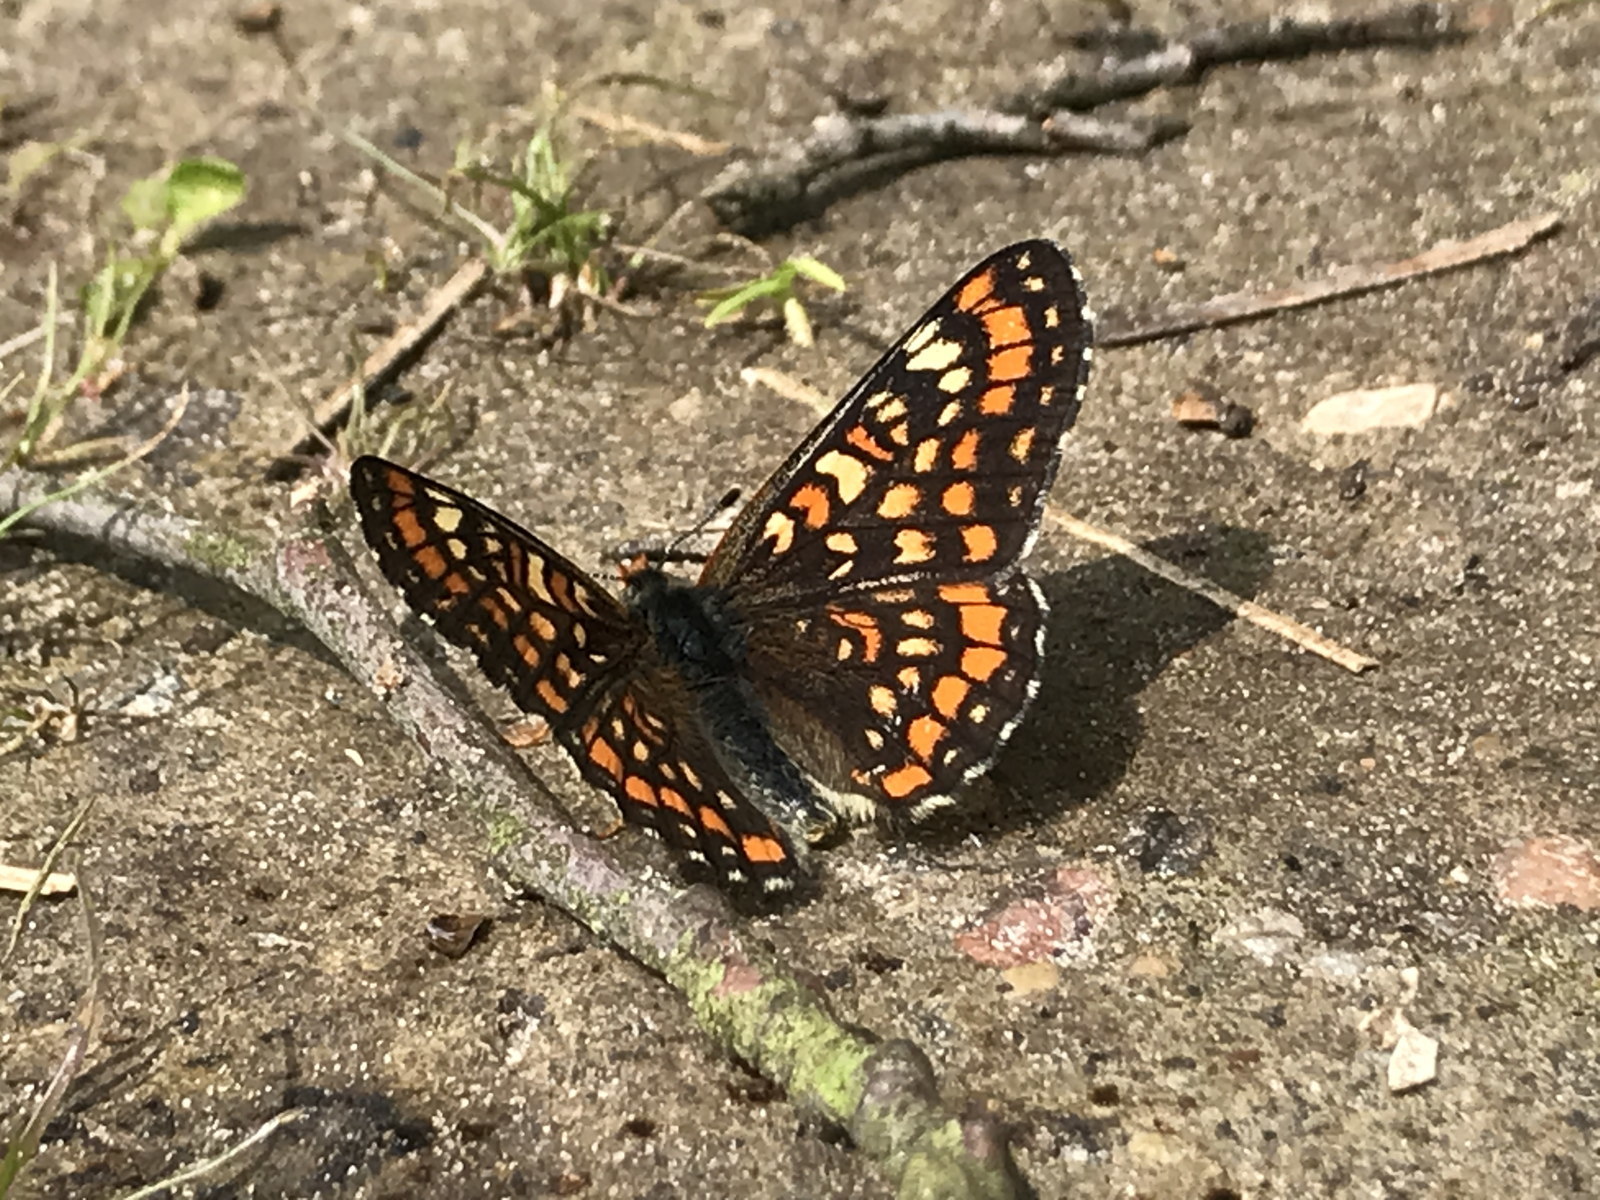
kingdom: Animalia
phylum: Arthropoda
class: Insecta
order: Lepidoptera
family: Nymphalidae
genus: Euphydryas
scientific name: Euphydryas maturna
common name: Scarce fritillary
